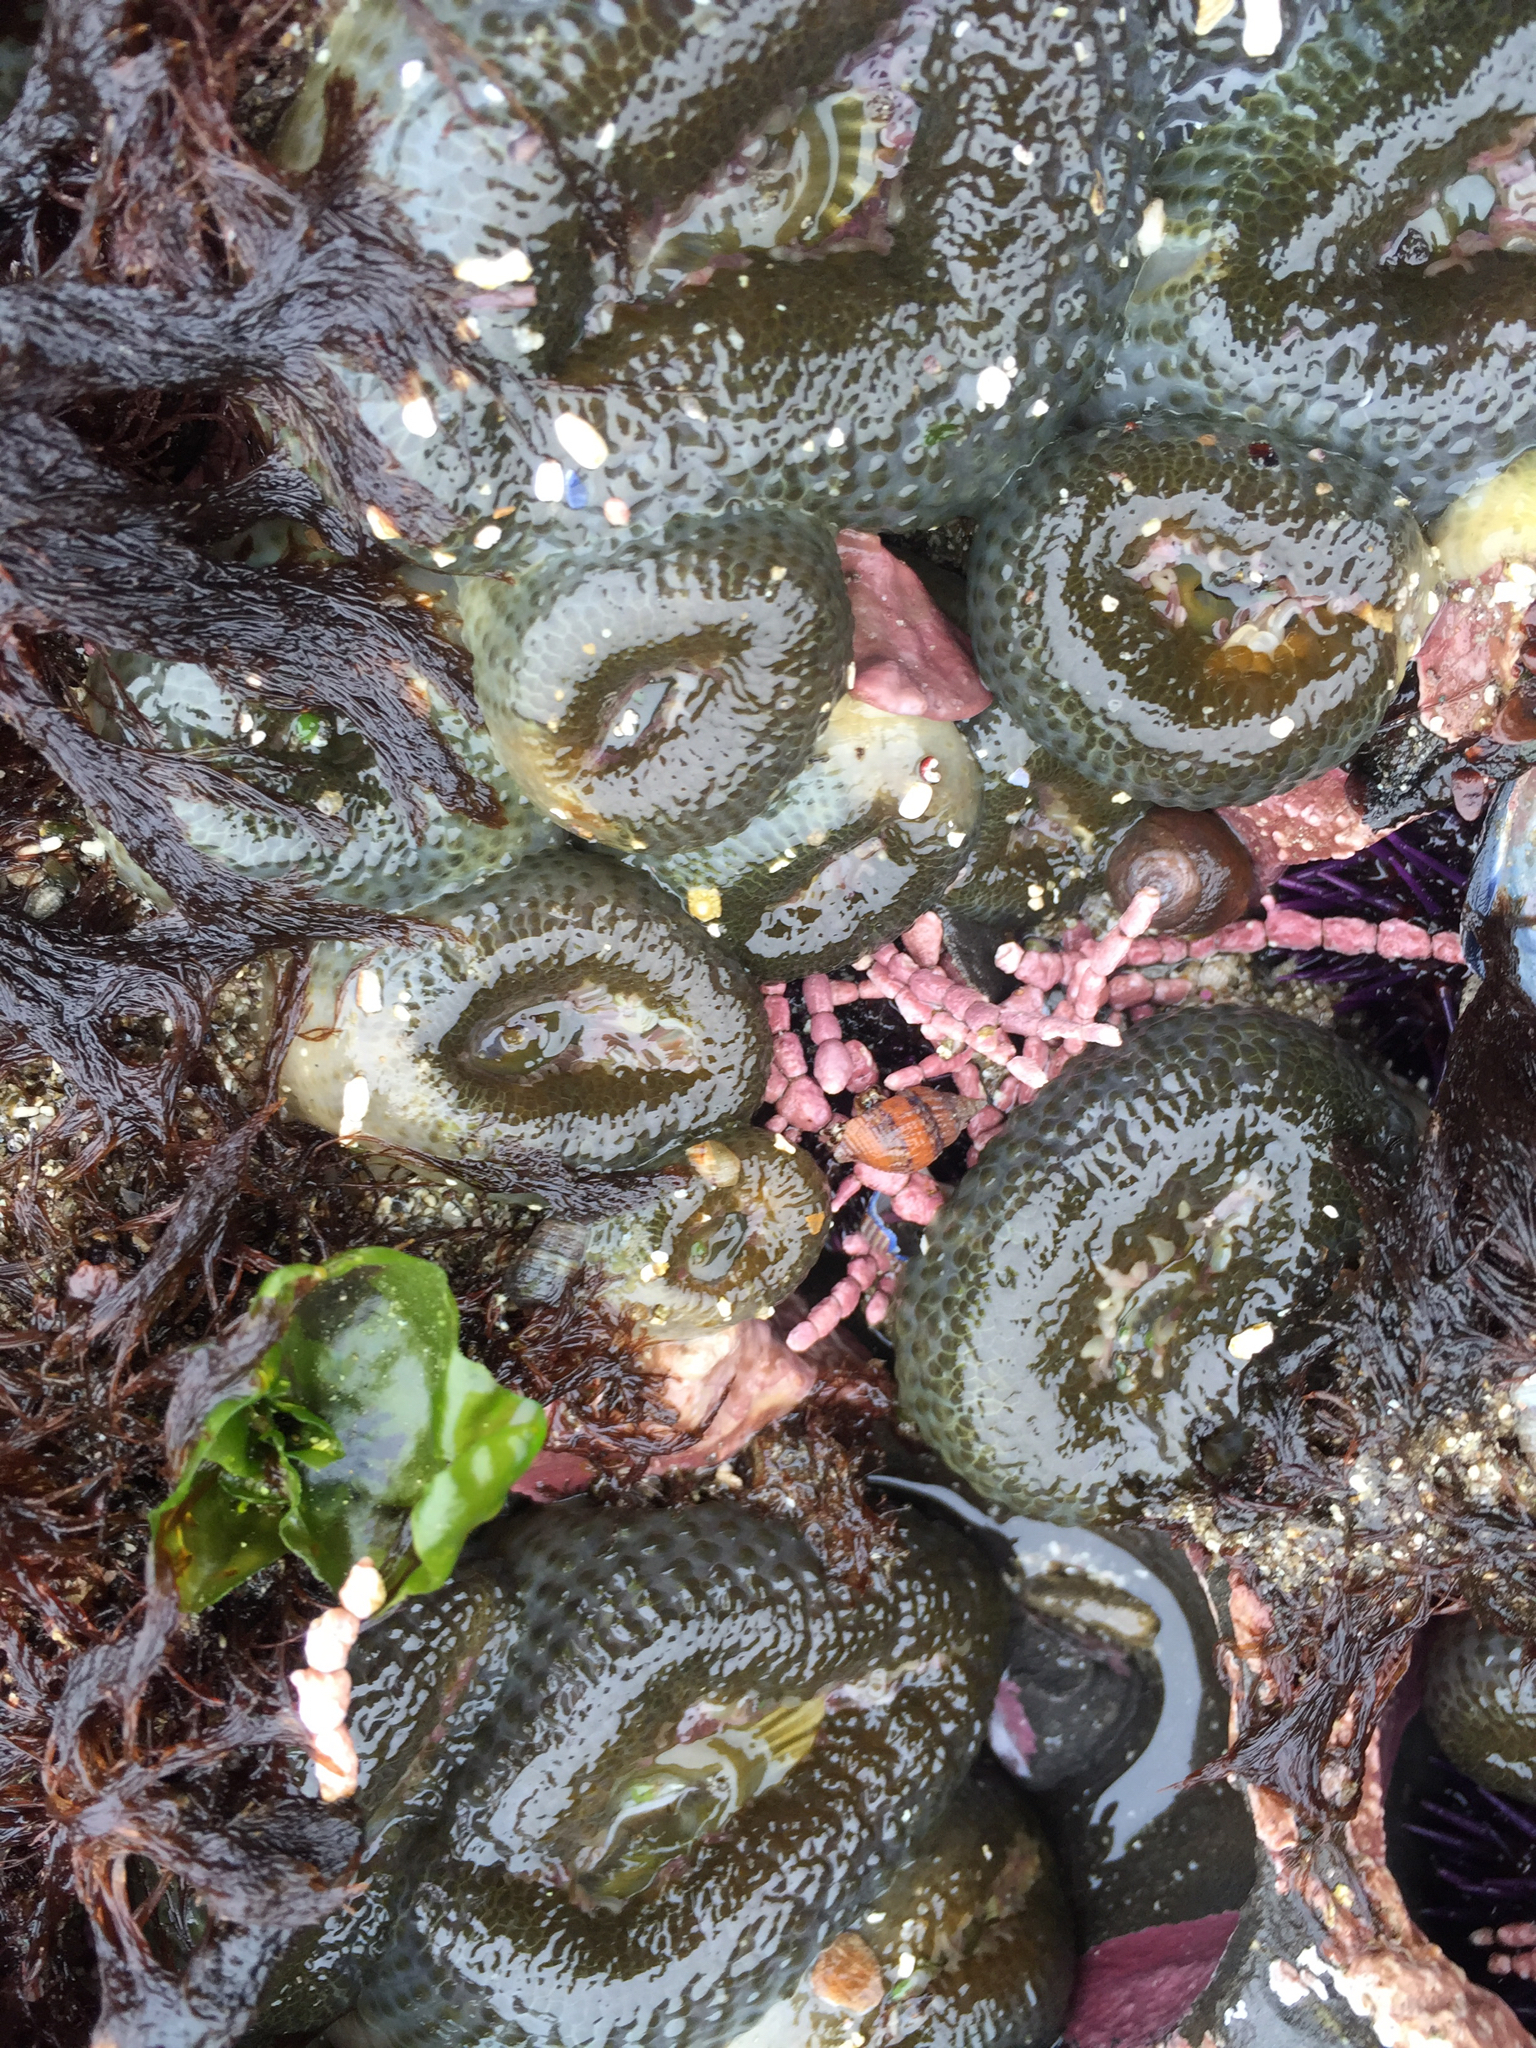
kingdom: Animalia
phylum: Cnidaria
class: Anthozoa
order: Actiniaria
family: Actiniidae
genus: Anthopleura
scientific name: Anthopleura elegantissima
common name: Clonal anemone
